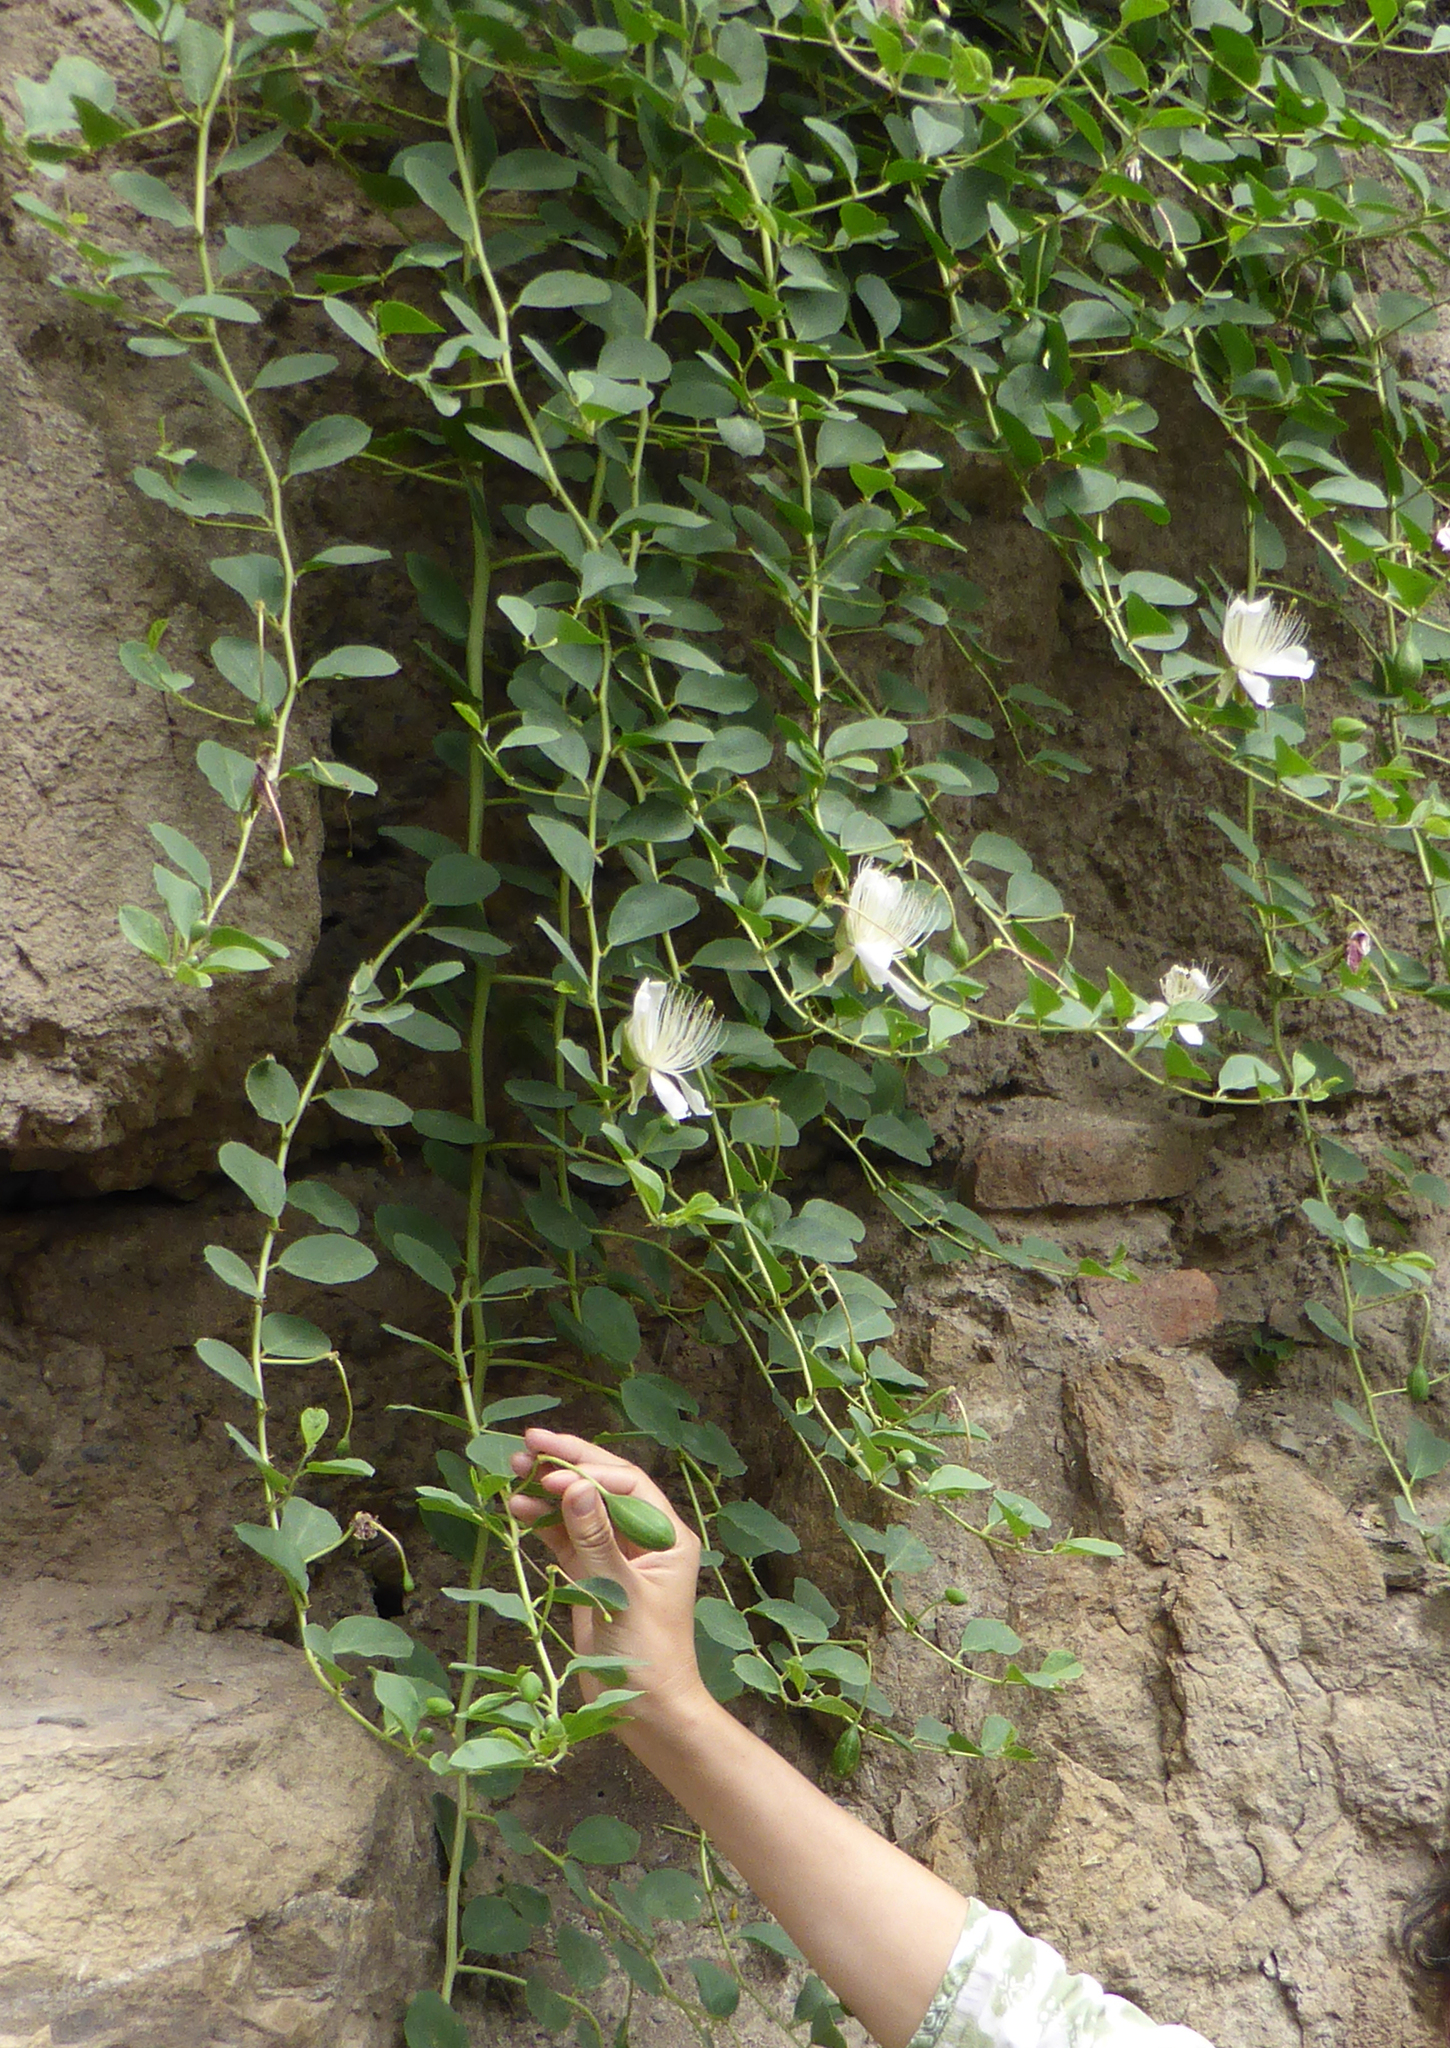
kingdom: Plantae
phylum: Tracheophyta
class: Magnoliopsida
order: Brassicales
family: Capparaceae
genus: Capparis
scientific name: Capparis spinosa
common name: Caper
